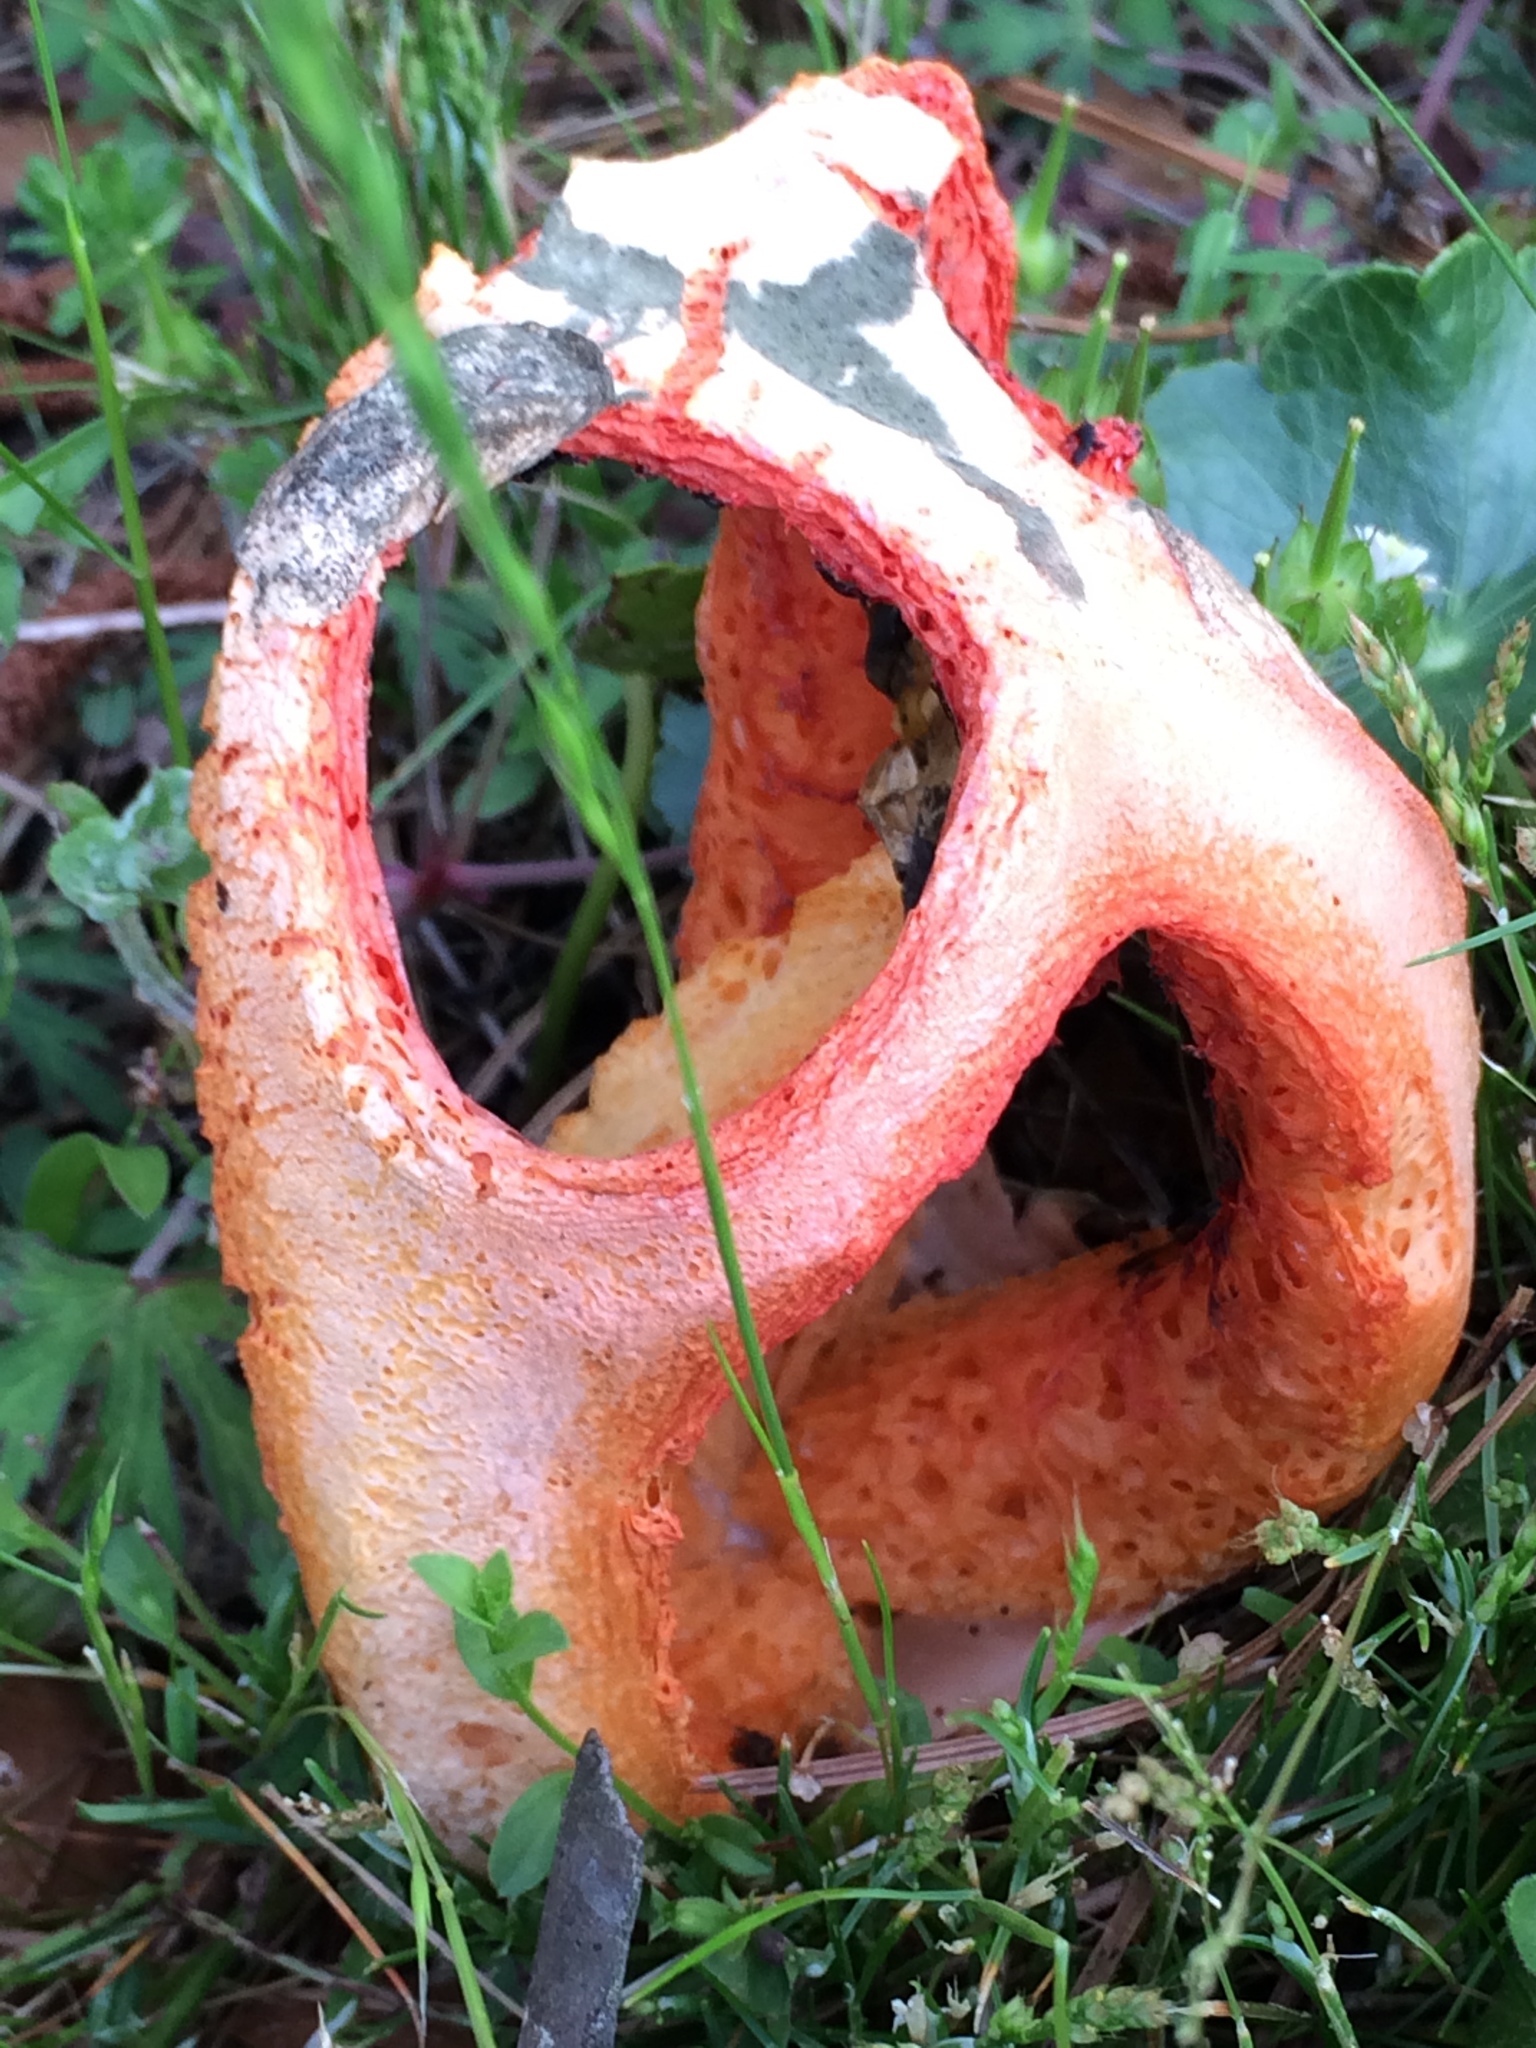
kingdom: Fungi
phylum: Basidiomycota
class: Agaricomycetes
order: Phallales
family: Phallaceae
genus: Clathrus
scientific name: Clathrus columnatus
